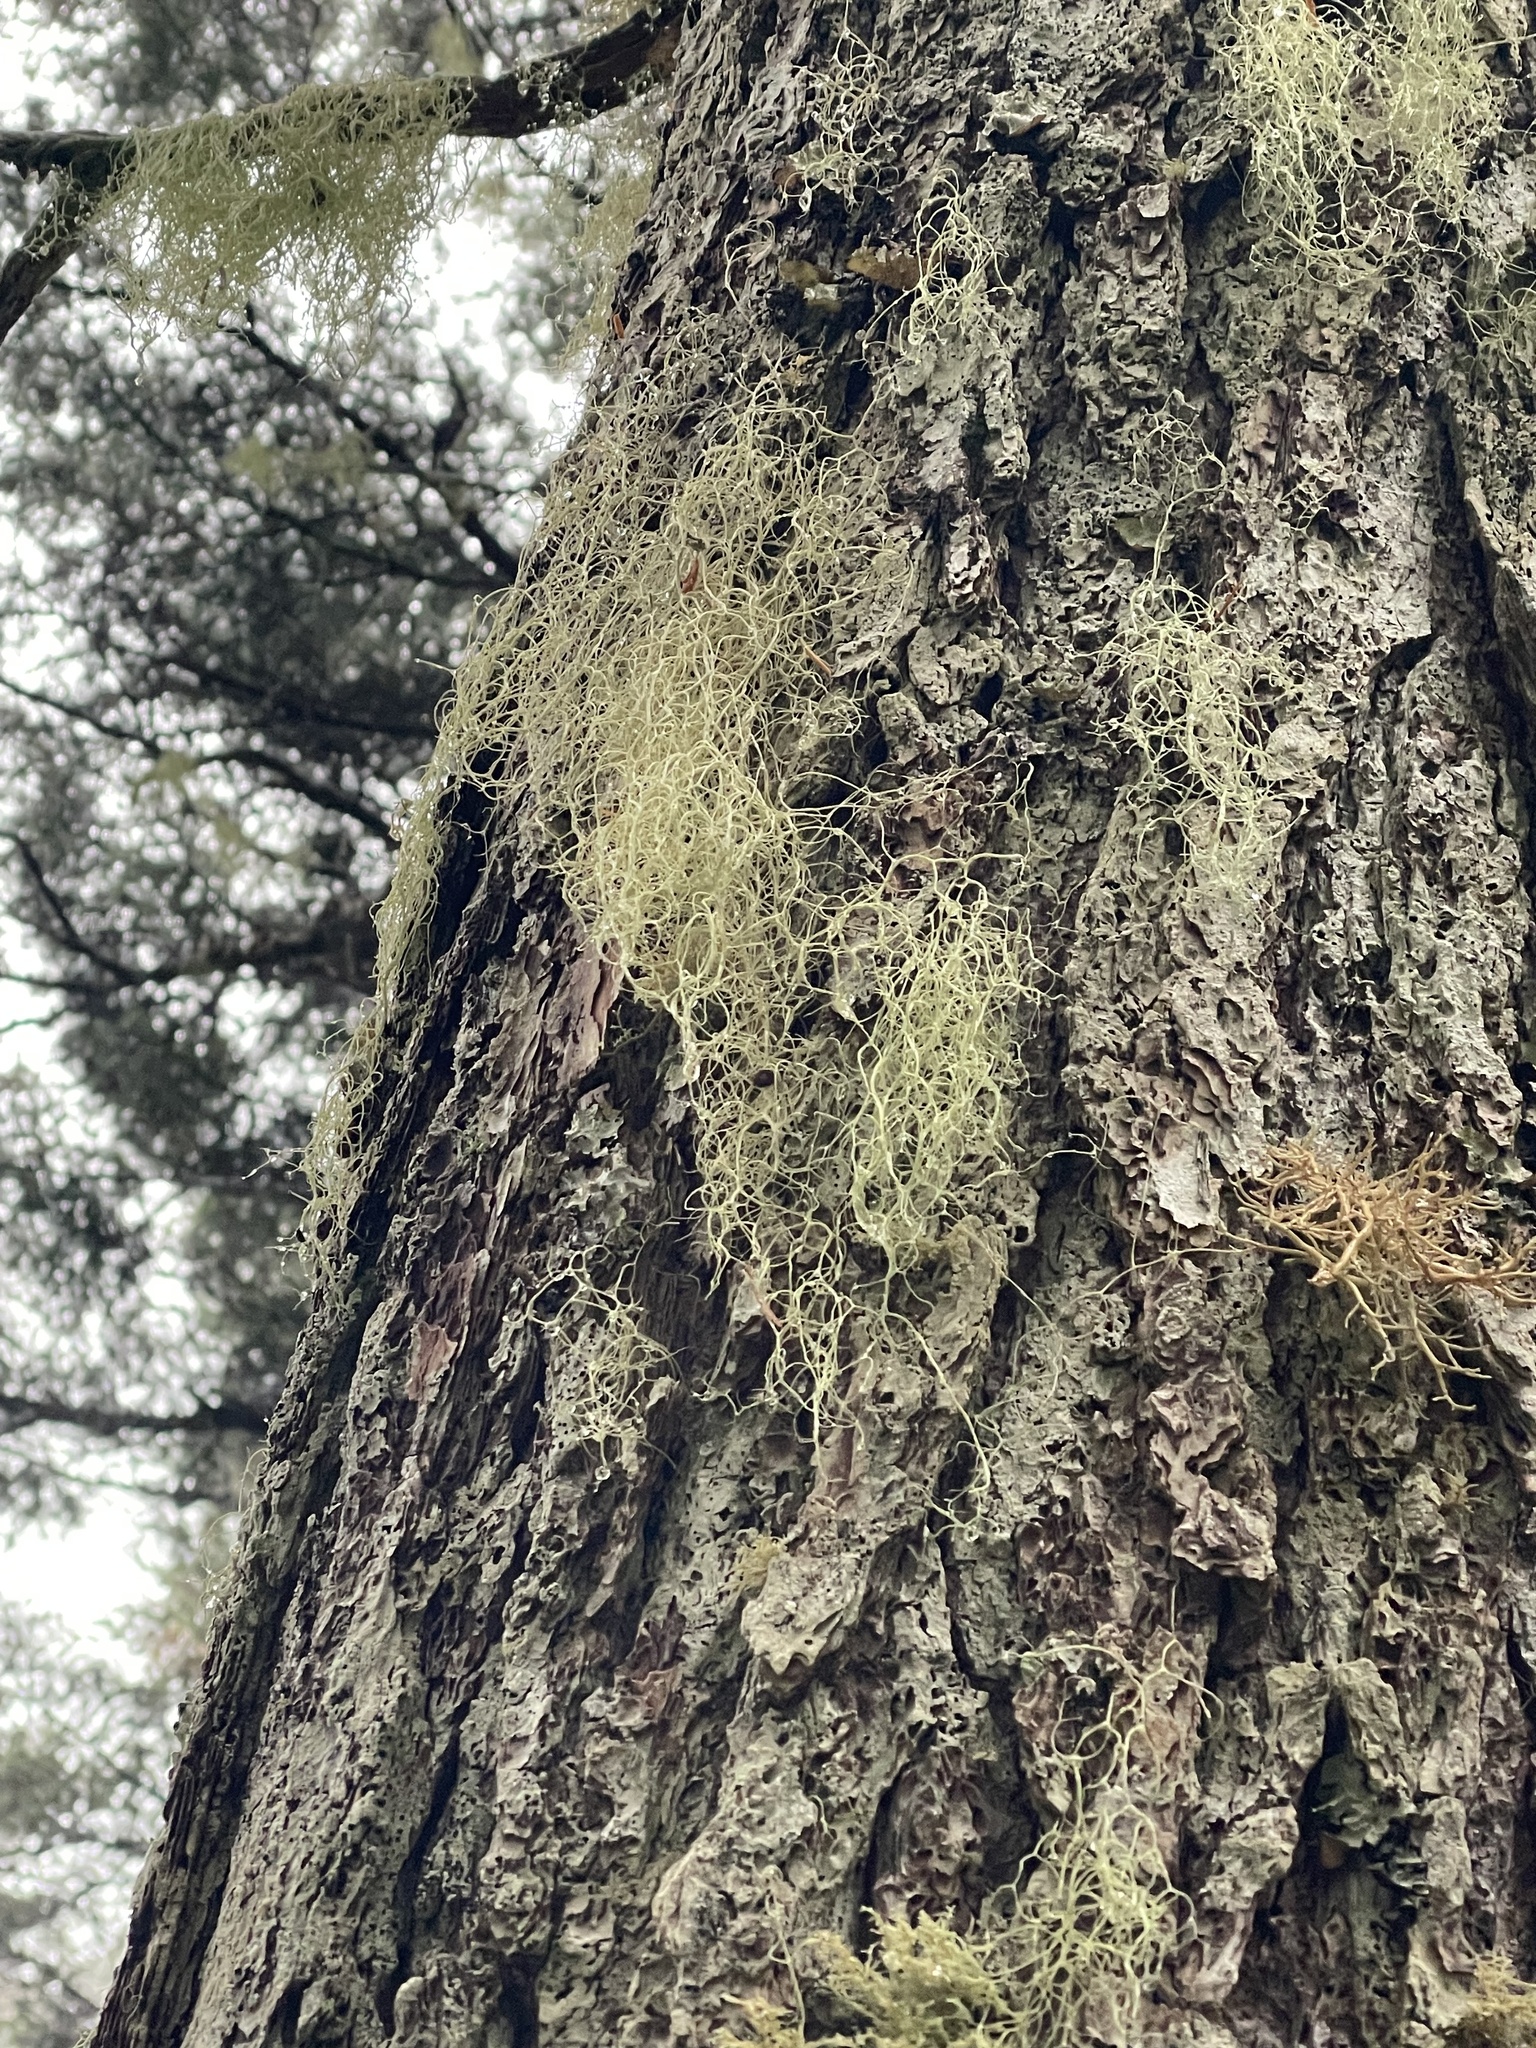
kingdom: Fungi
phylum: Ascomycota
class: Lecanoromycetes
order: Lecanorales
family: Parmeliaceae
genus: Alectoria
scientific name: Alectoria sarmentosa
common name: Witch's hair
